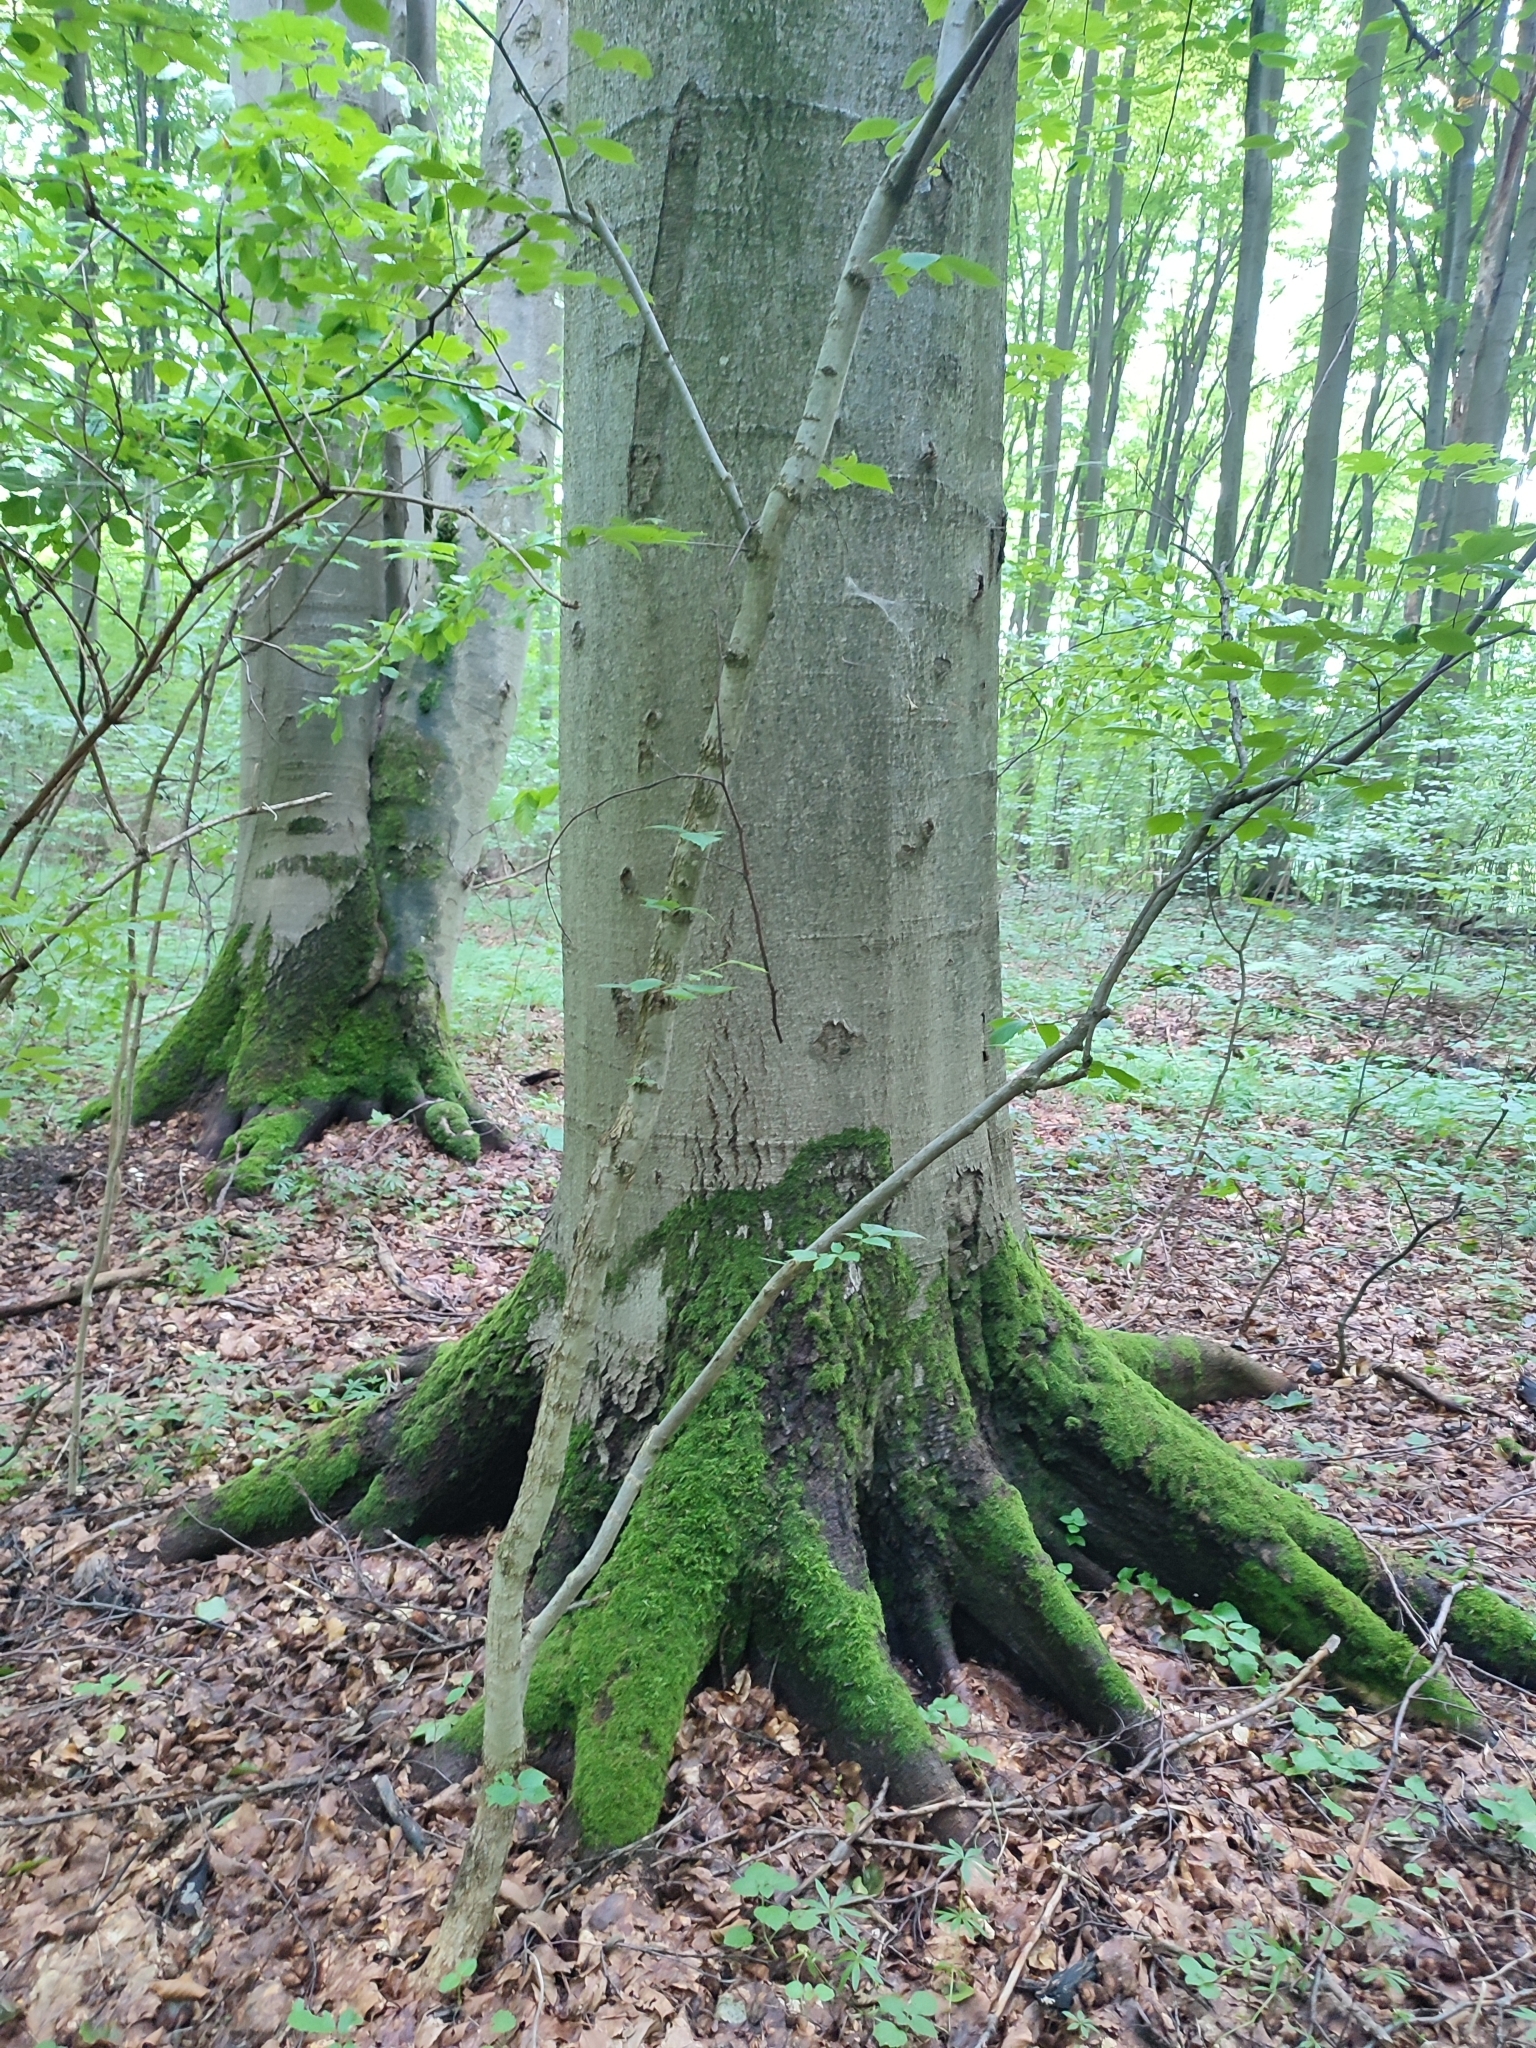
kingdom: Plantae
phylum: Tracheophyta
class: Magnoliopsida
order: Fagales
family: Fagaceae
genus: Fagus
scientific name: Fagus sylvatica
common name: Beech
